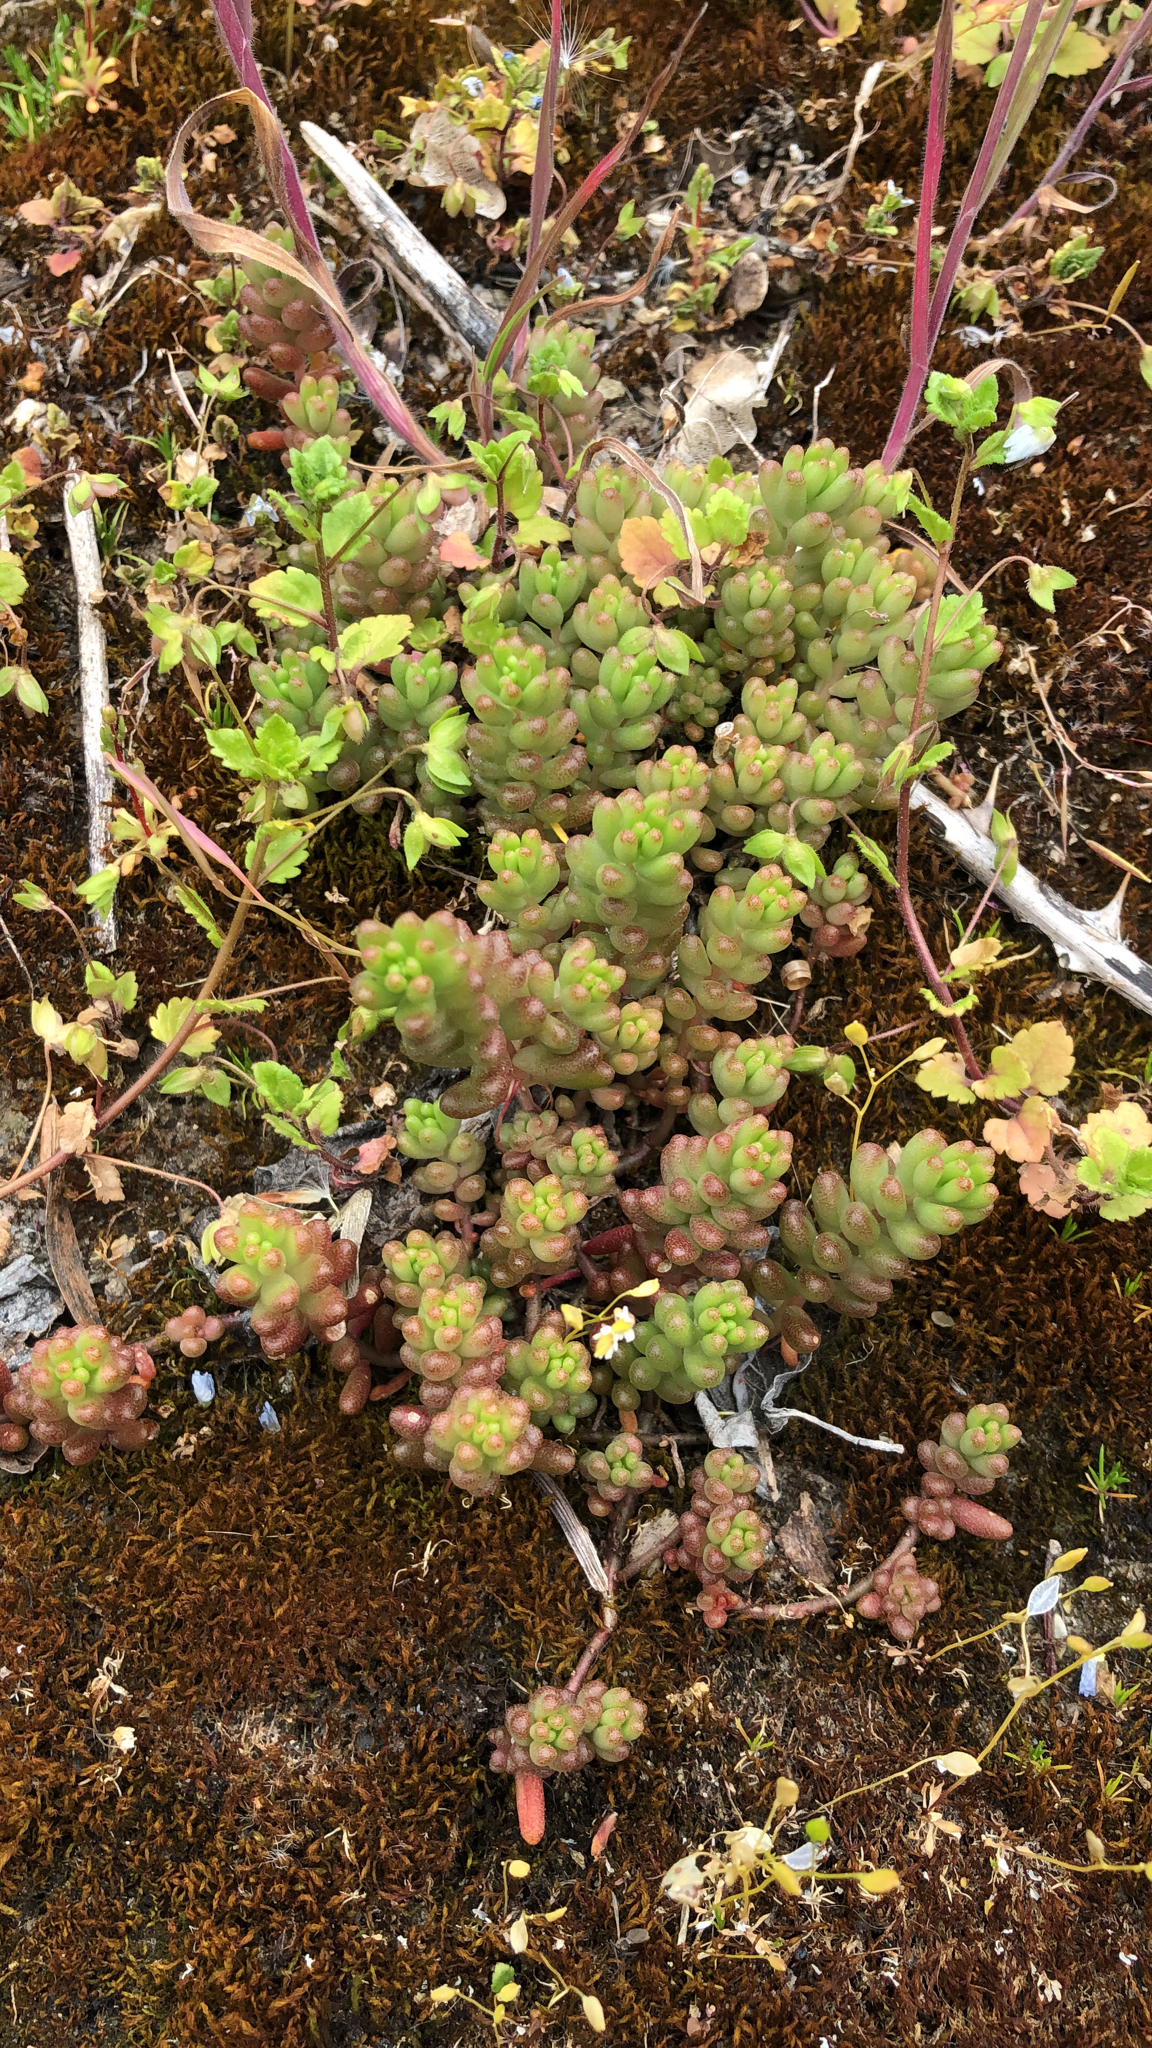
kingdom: Plantae
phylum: Tracheophyta
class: Magnoliopsida
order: Saxifragales
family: Crassulaceae
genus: Sedum
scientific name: Sedum album
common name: White stonecrop
